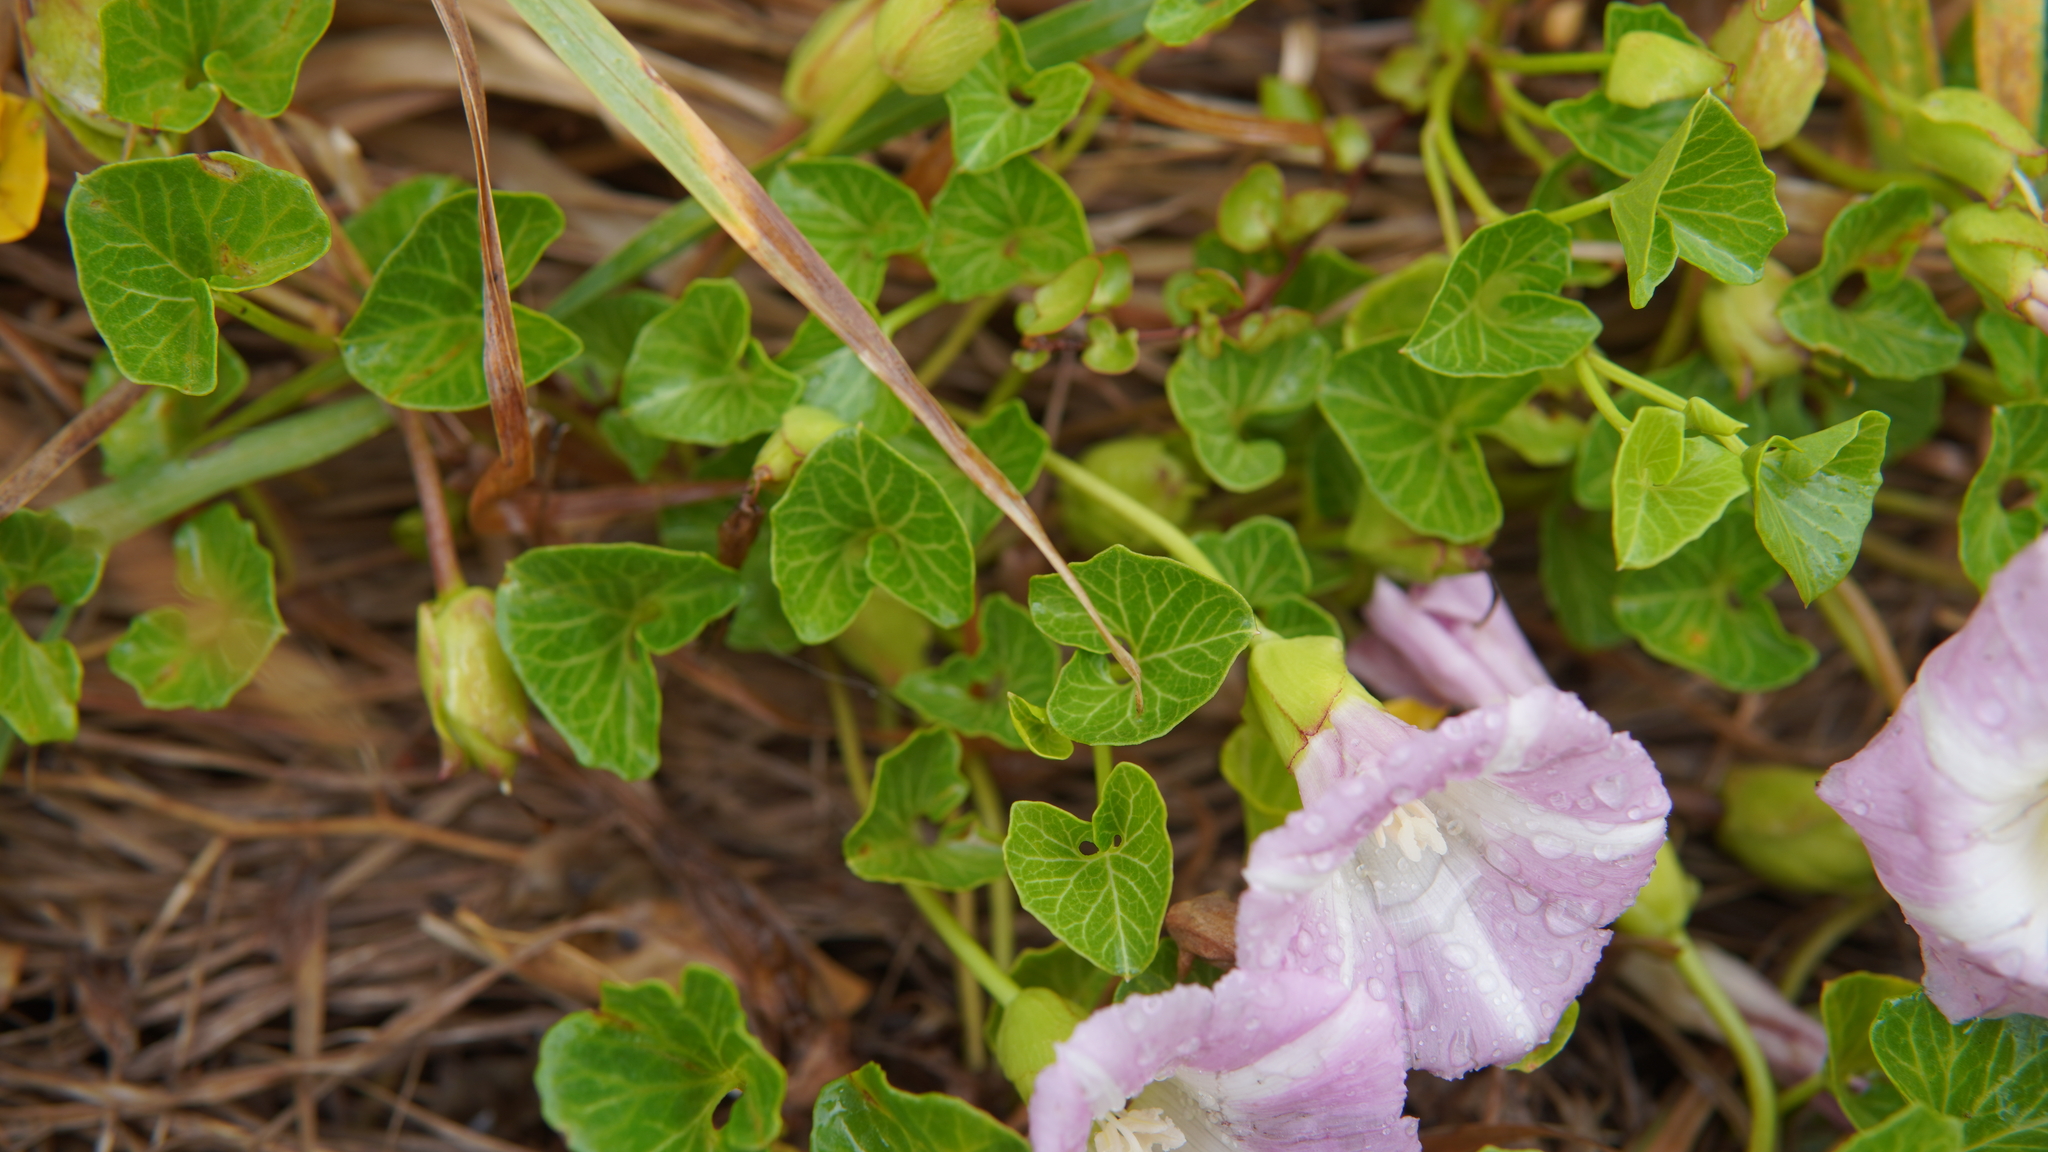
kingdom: Plantae
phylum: Tracheophyta
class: Magnoliopsida
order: Solanales
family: Convolvulaceae
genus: Calystegia
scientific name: Calystegia soldanella
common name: Sea bindweed
